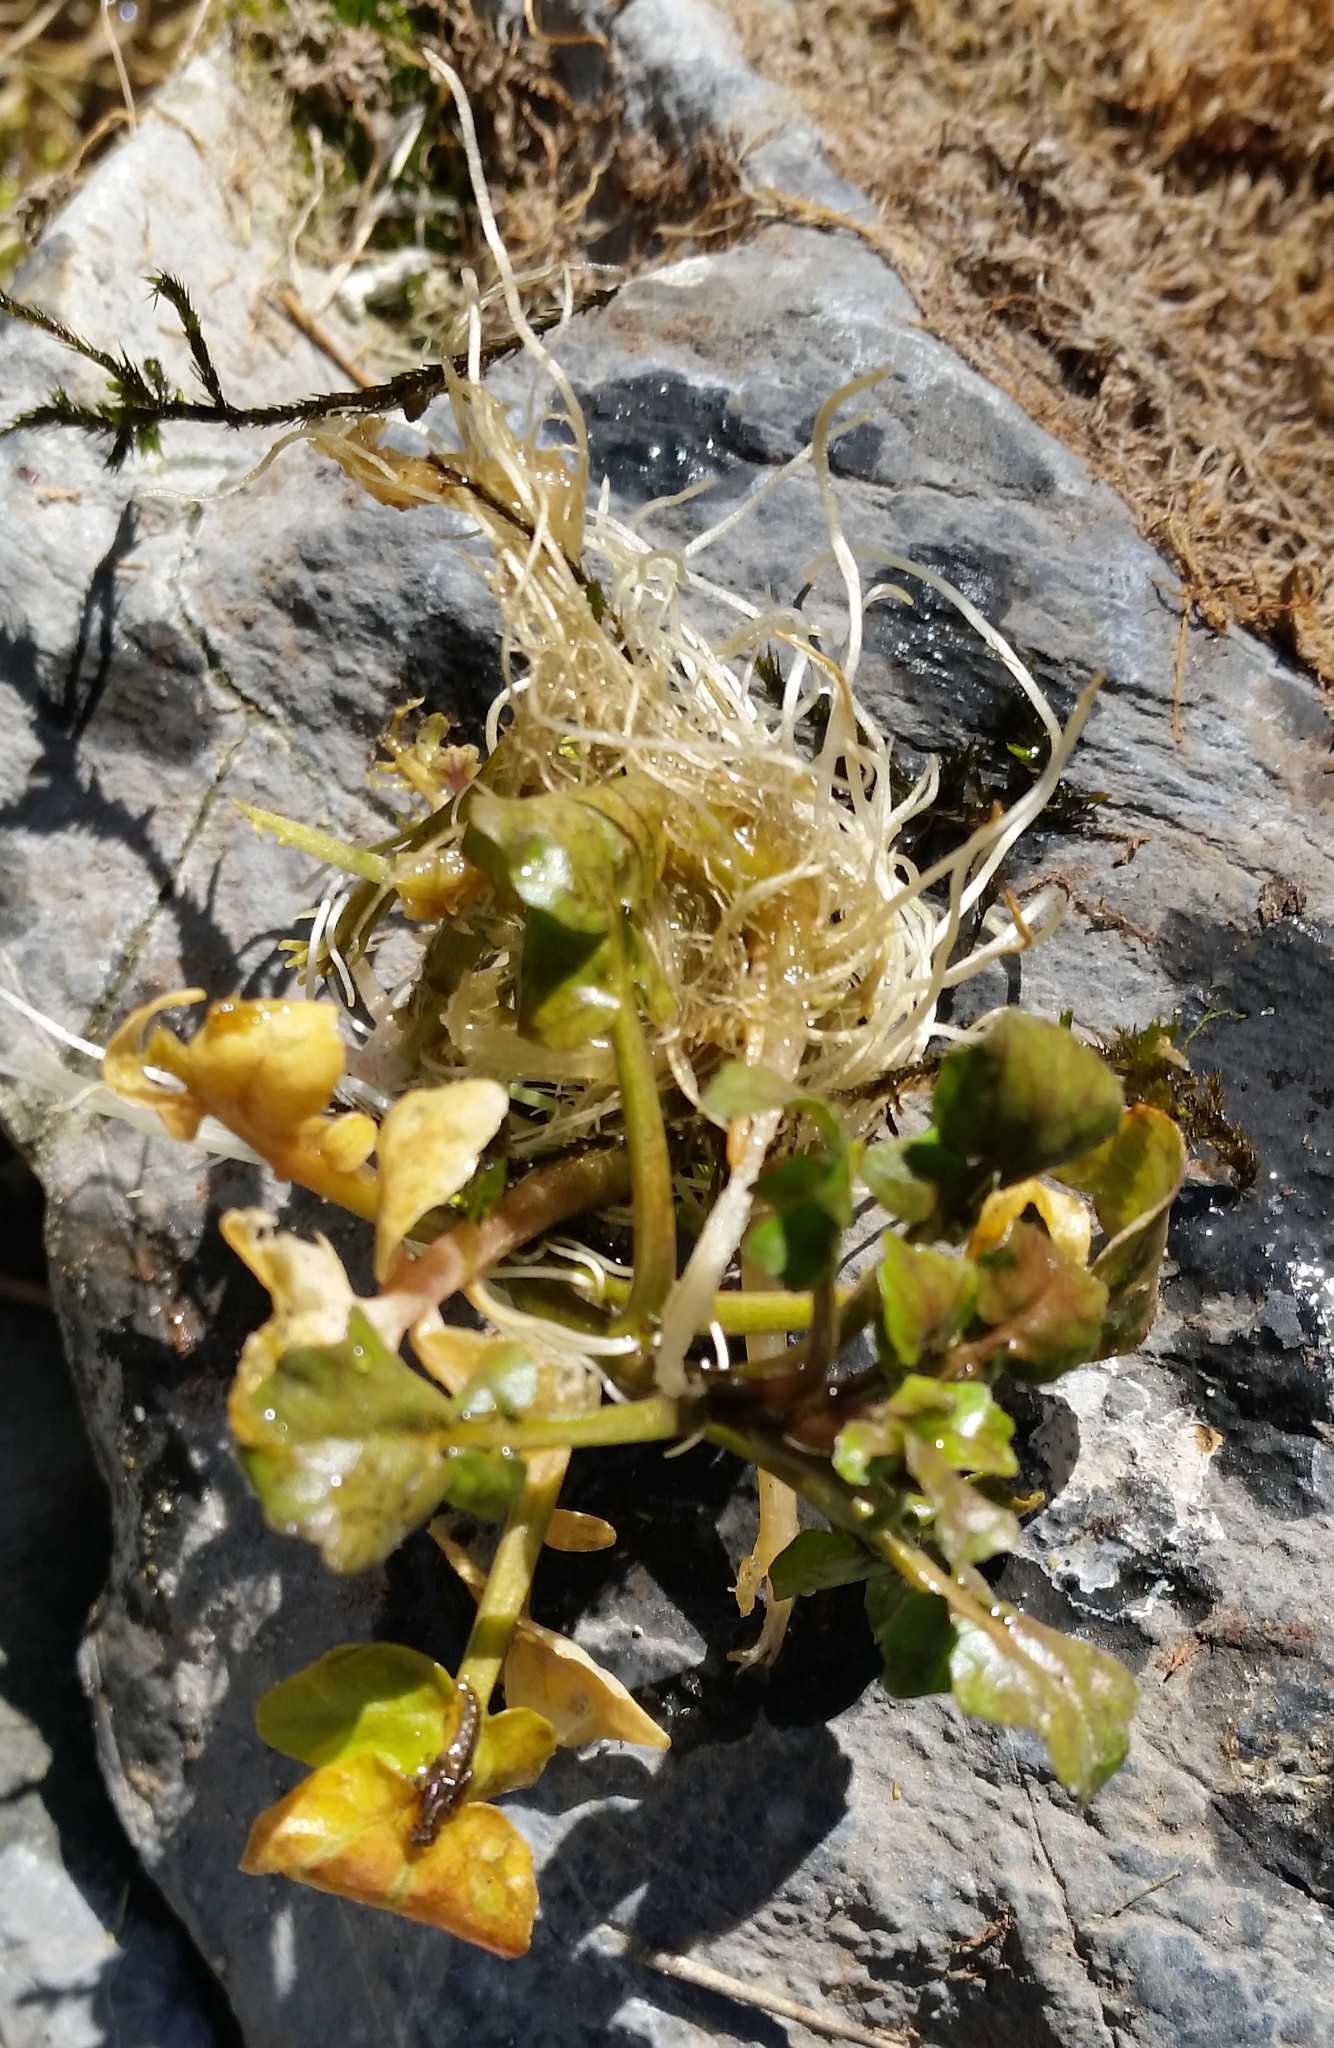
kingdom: Plantae
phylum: Tracheophyta
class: Magnoliopsida
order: Brassicales
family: Brassicaceae
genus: Nasturtium
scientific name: Nasturtium officinale
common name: Watercress
